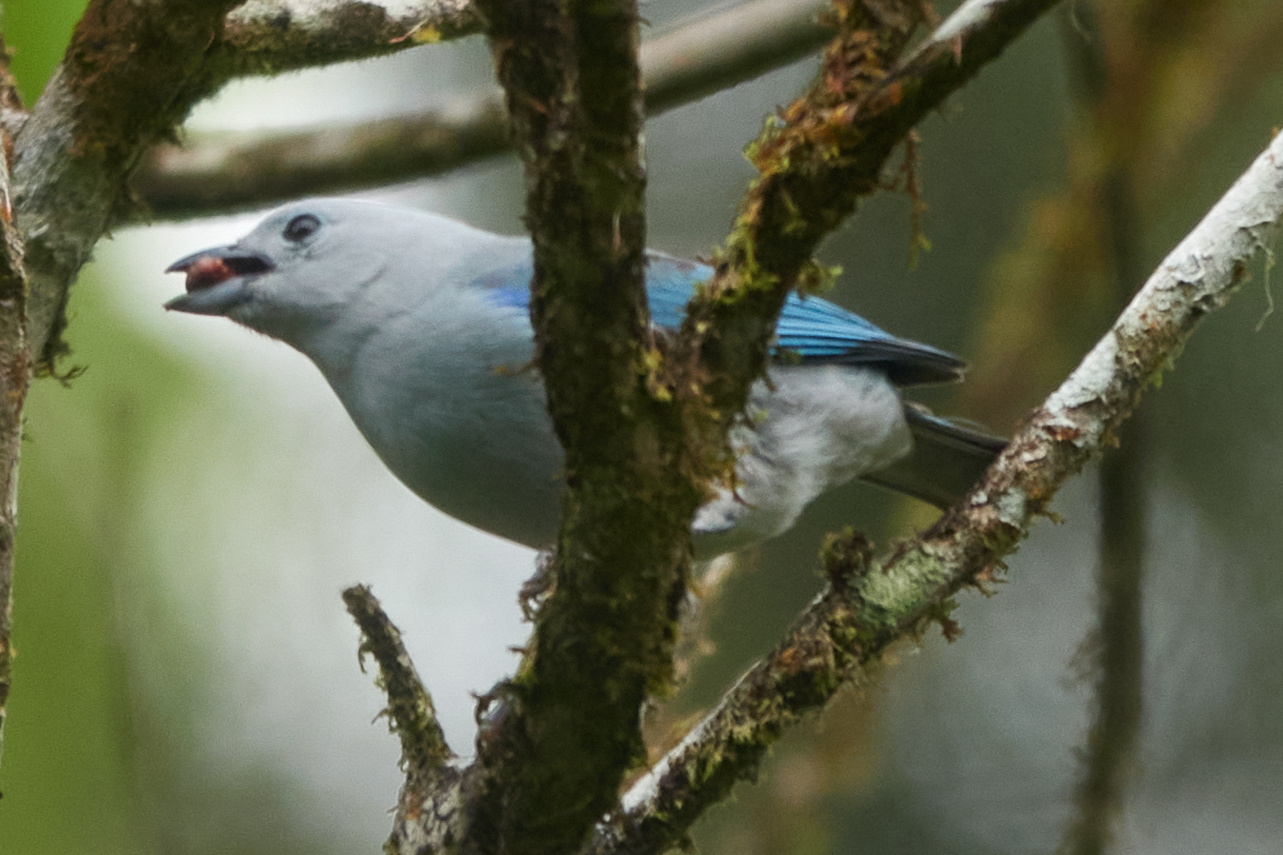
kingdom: Animalia
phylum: Chordata
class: Aves
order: Passeriformes
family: Thraupidae
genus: Thraupis
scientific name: Thraupis episcopus
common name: Blue-grey tanager
